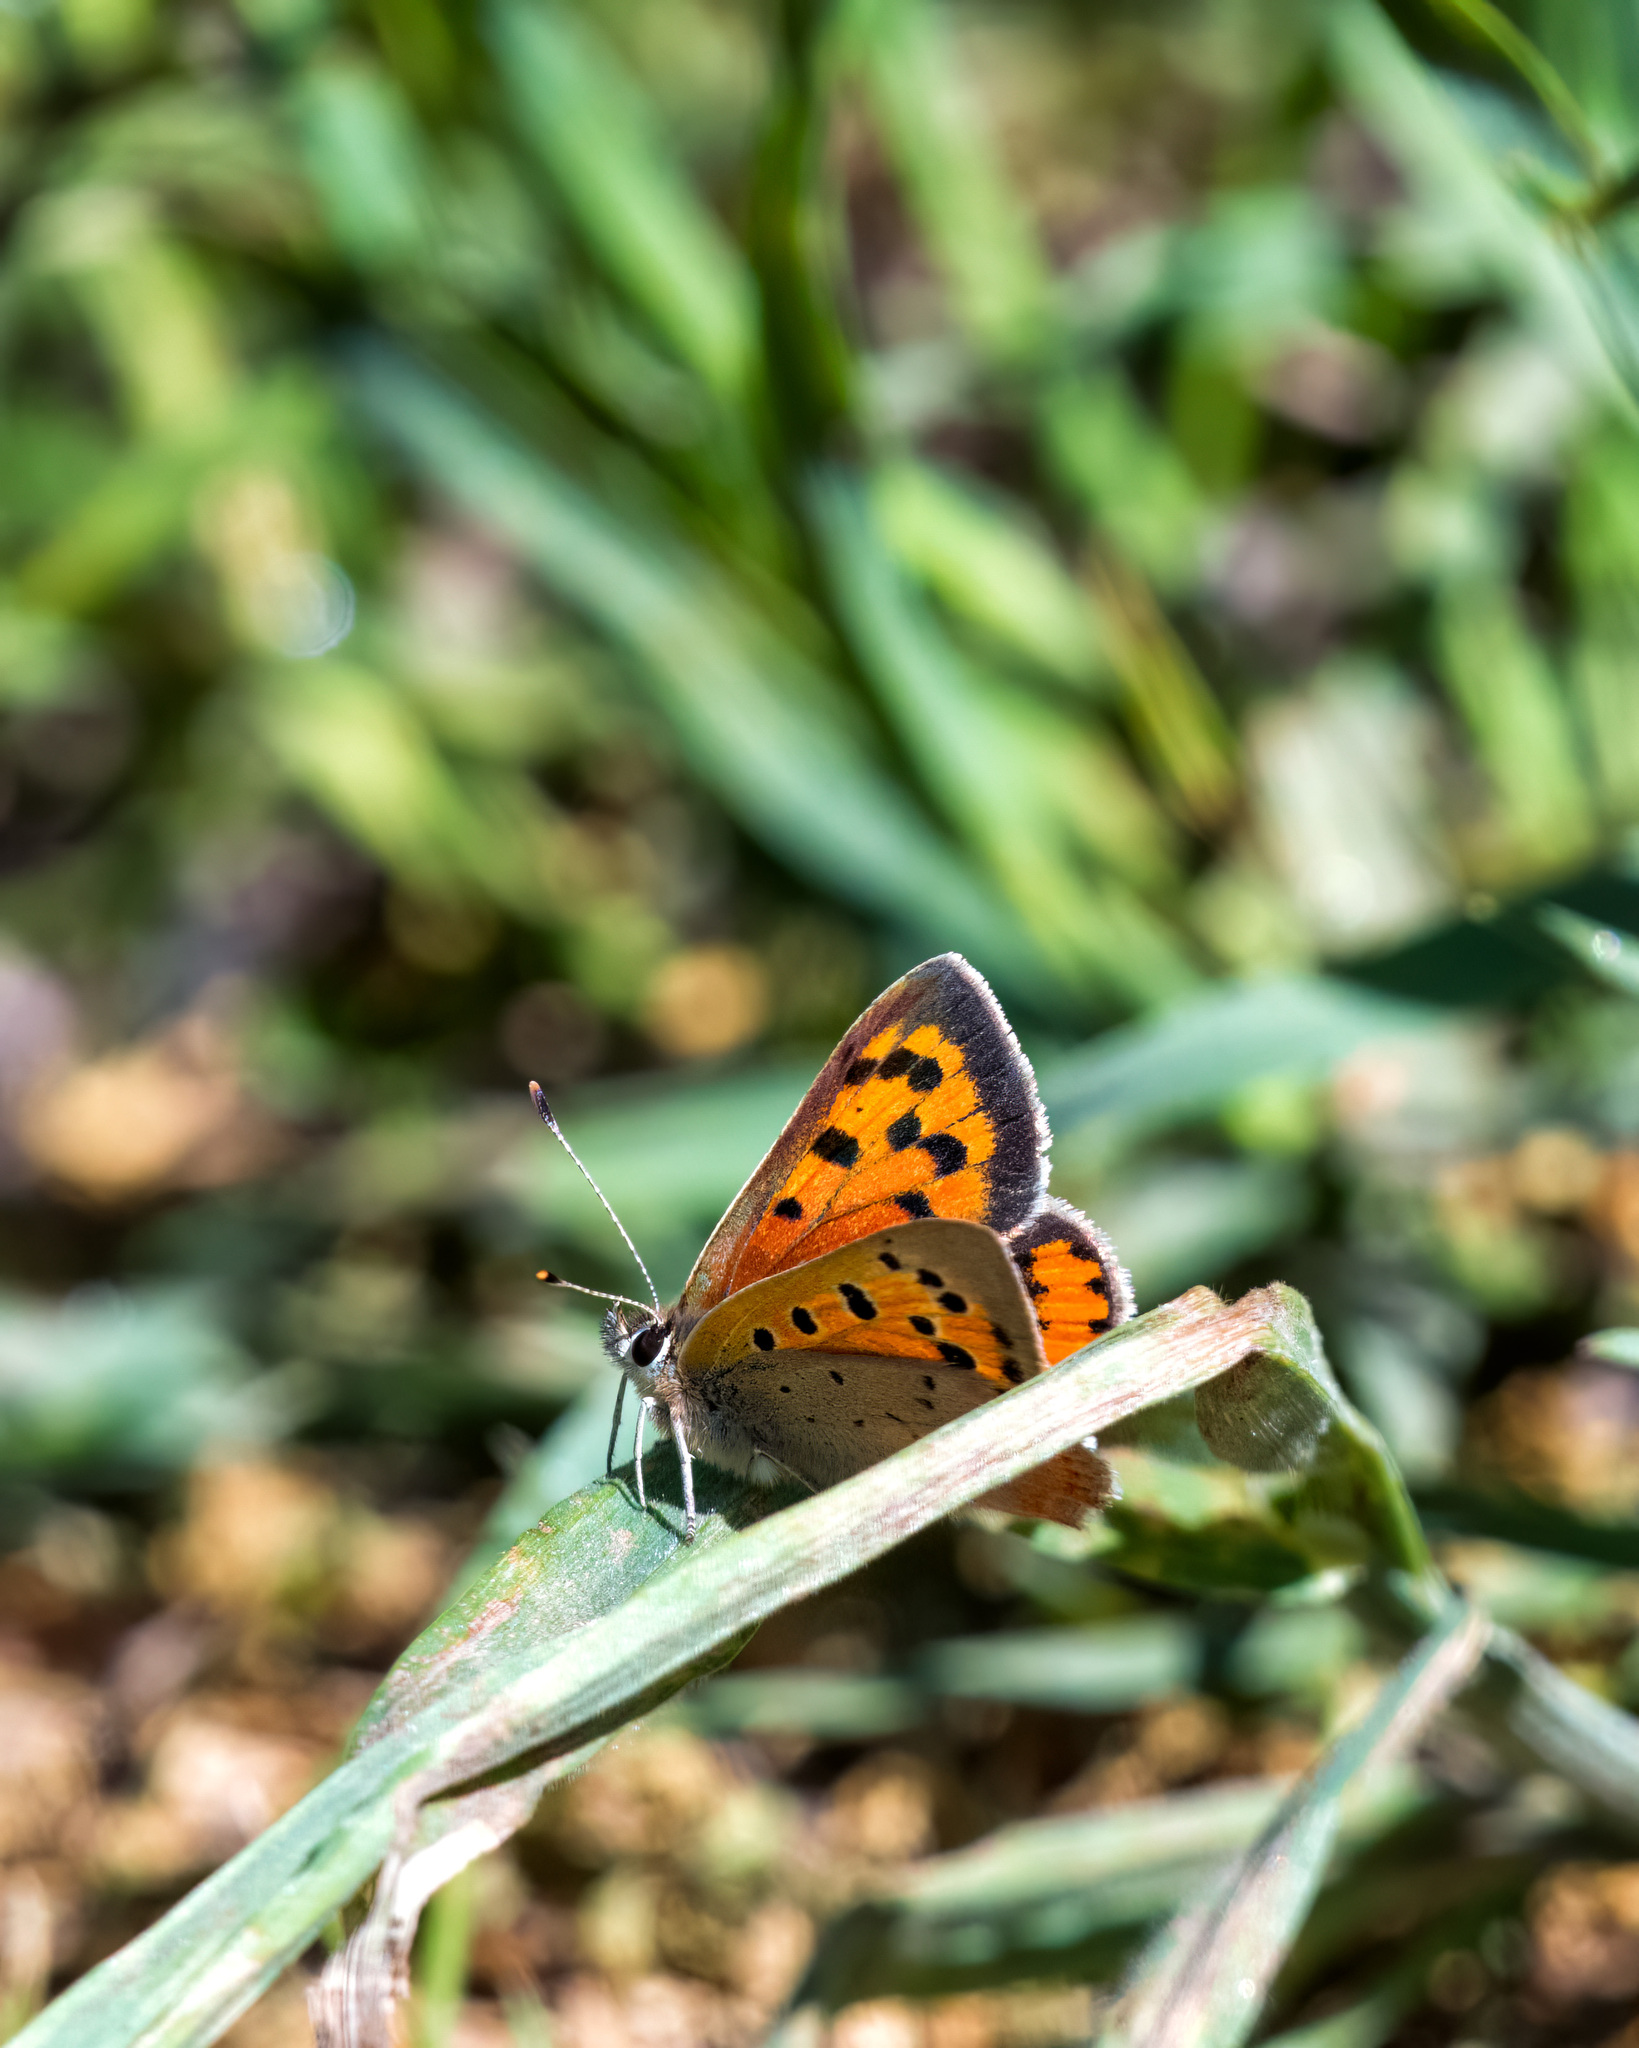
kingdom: Animalia
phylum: Arthropoda
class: Insecta
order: Lepidoptera
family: Lycaenidae
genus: Lycaena
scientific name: Lycaena phlaeas
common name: Small copper
